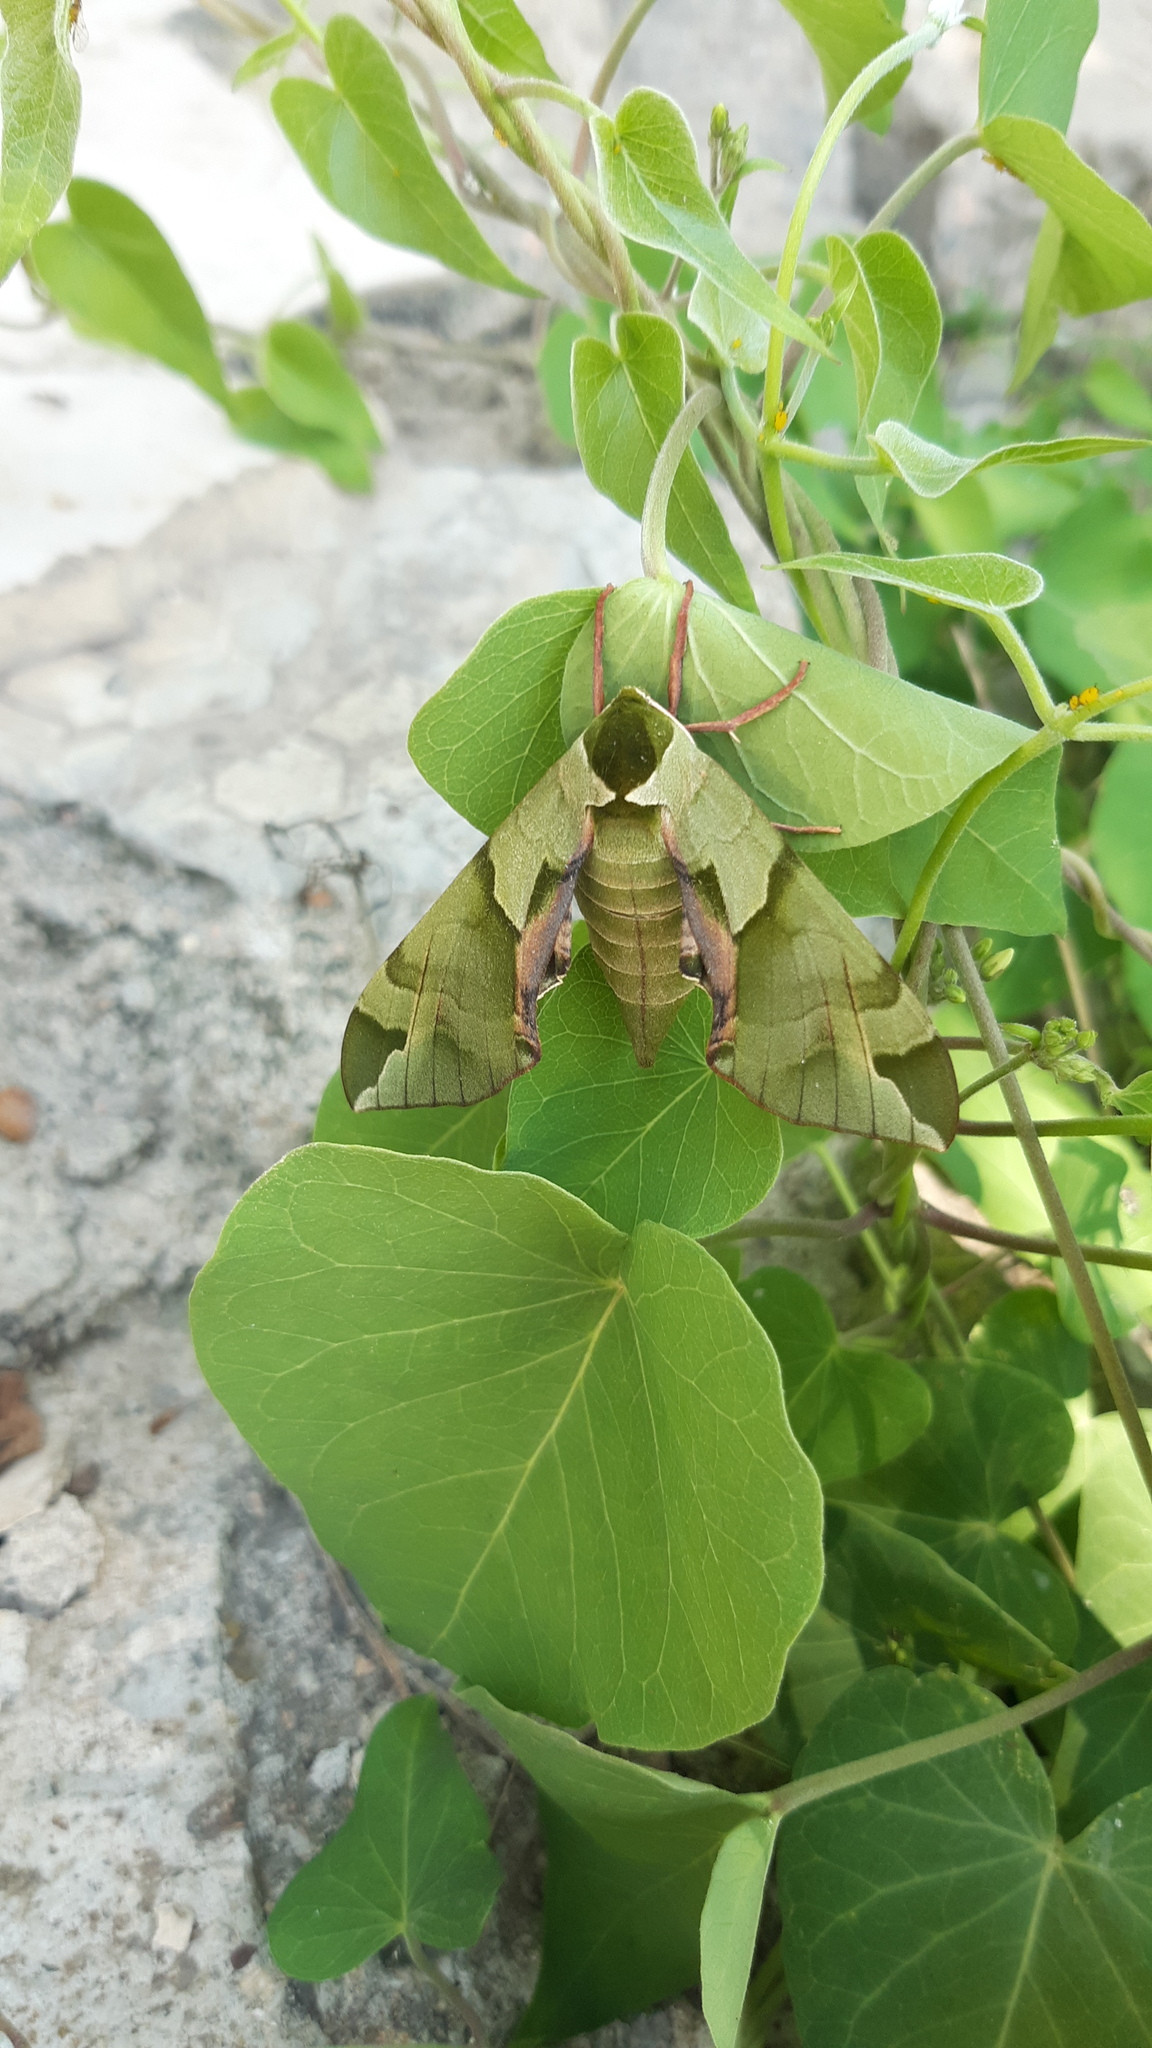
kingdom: Animalia
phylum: Arthropoda
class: Insecta
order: Lepidoptera
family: Sphingidae
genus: Callambulyx
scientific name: Callambulyx tatarinovii
